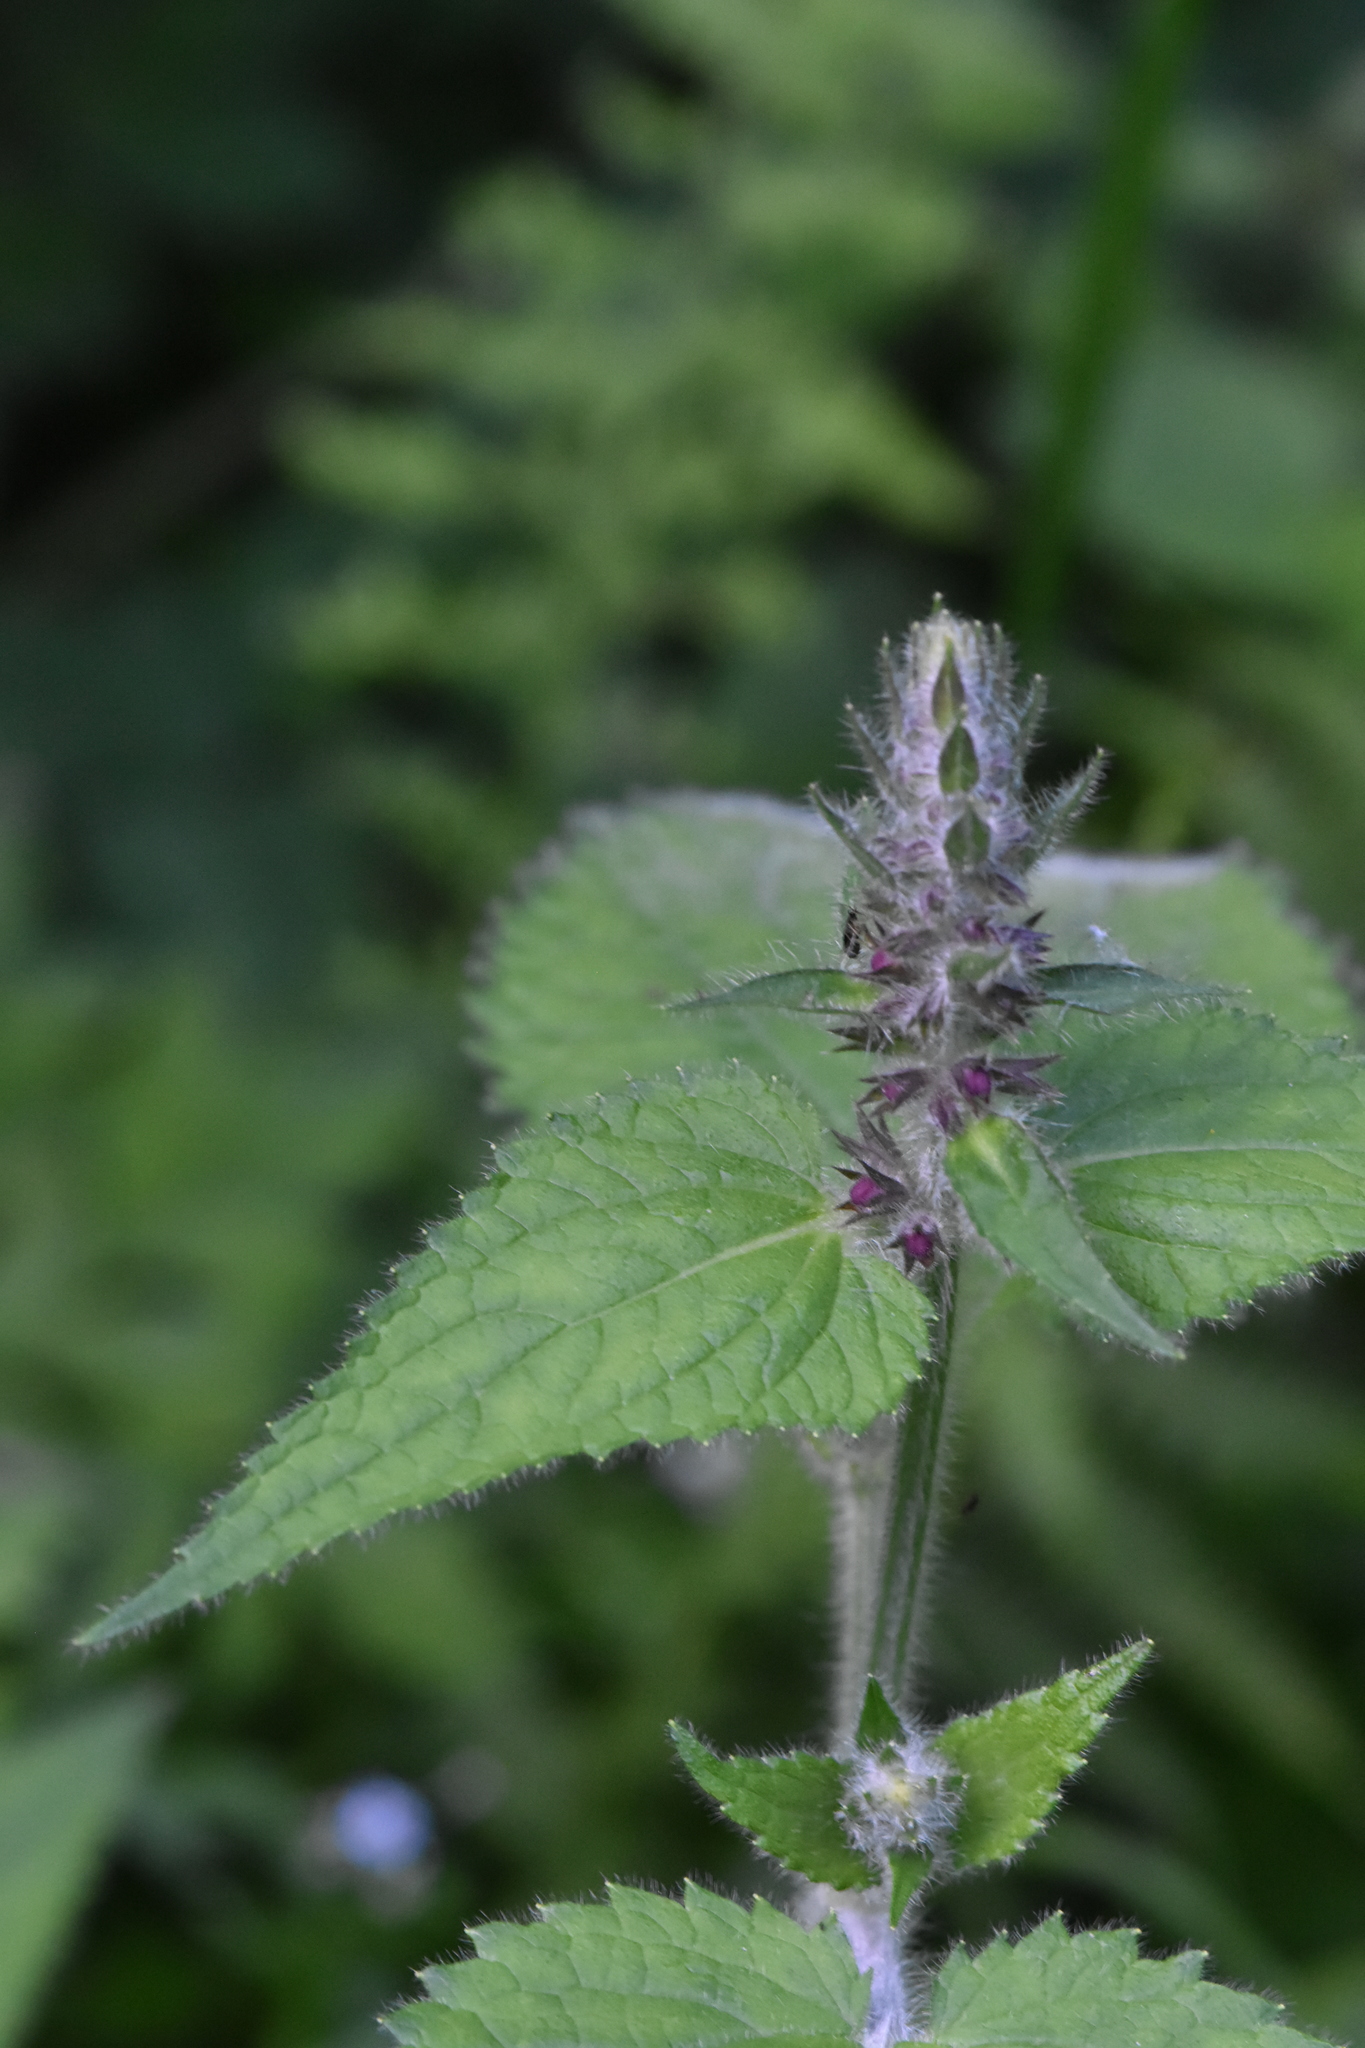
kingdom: Plantae
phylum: Tracheophyta
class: Magnoliopsida
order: Lamiales
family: Lamiaceae
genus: Stachys
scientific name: Stachys sylvatica
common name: Hedge woundwort
